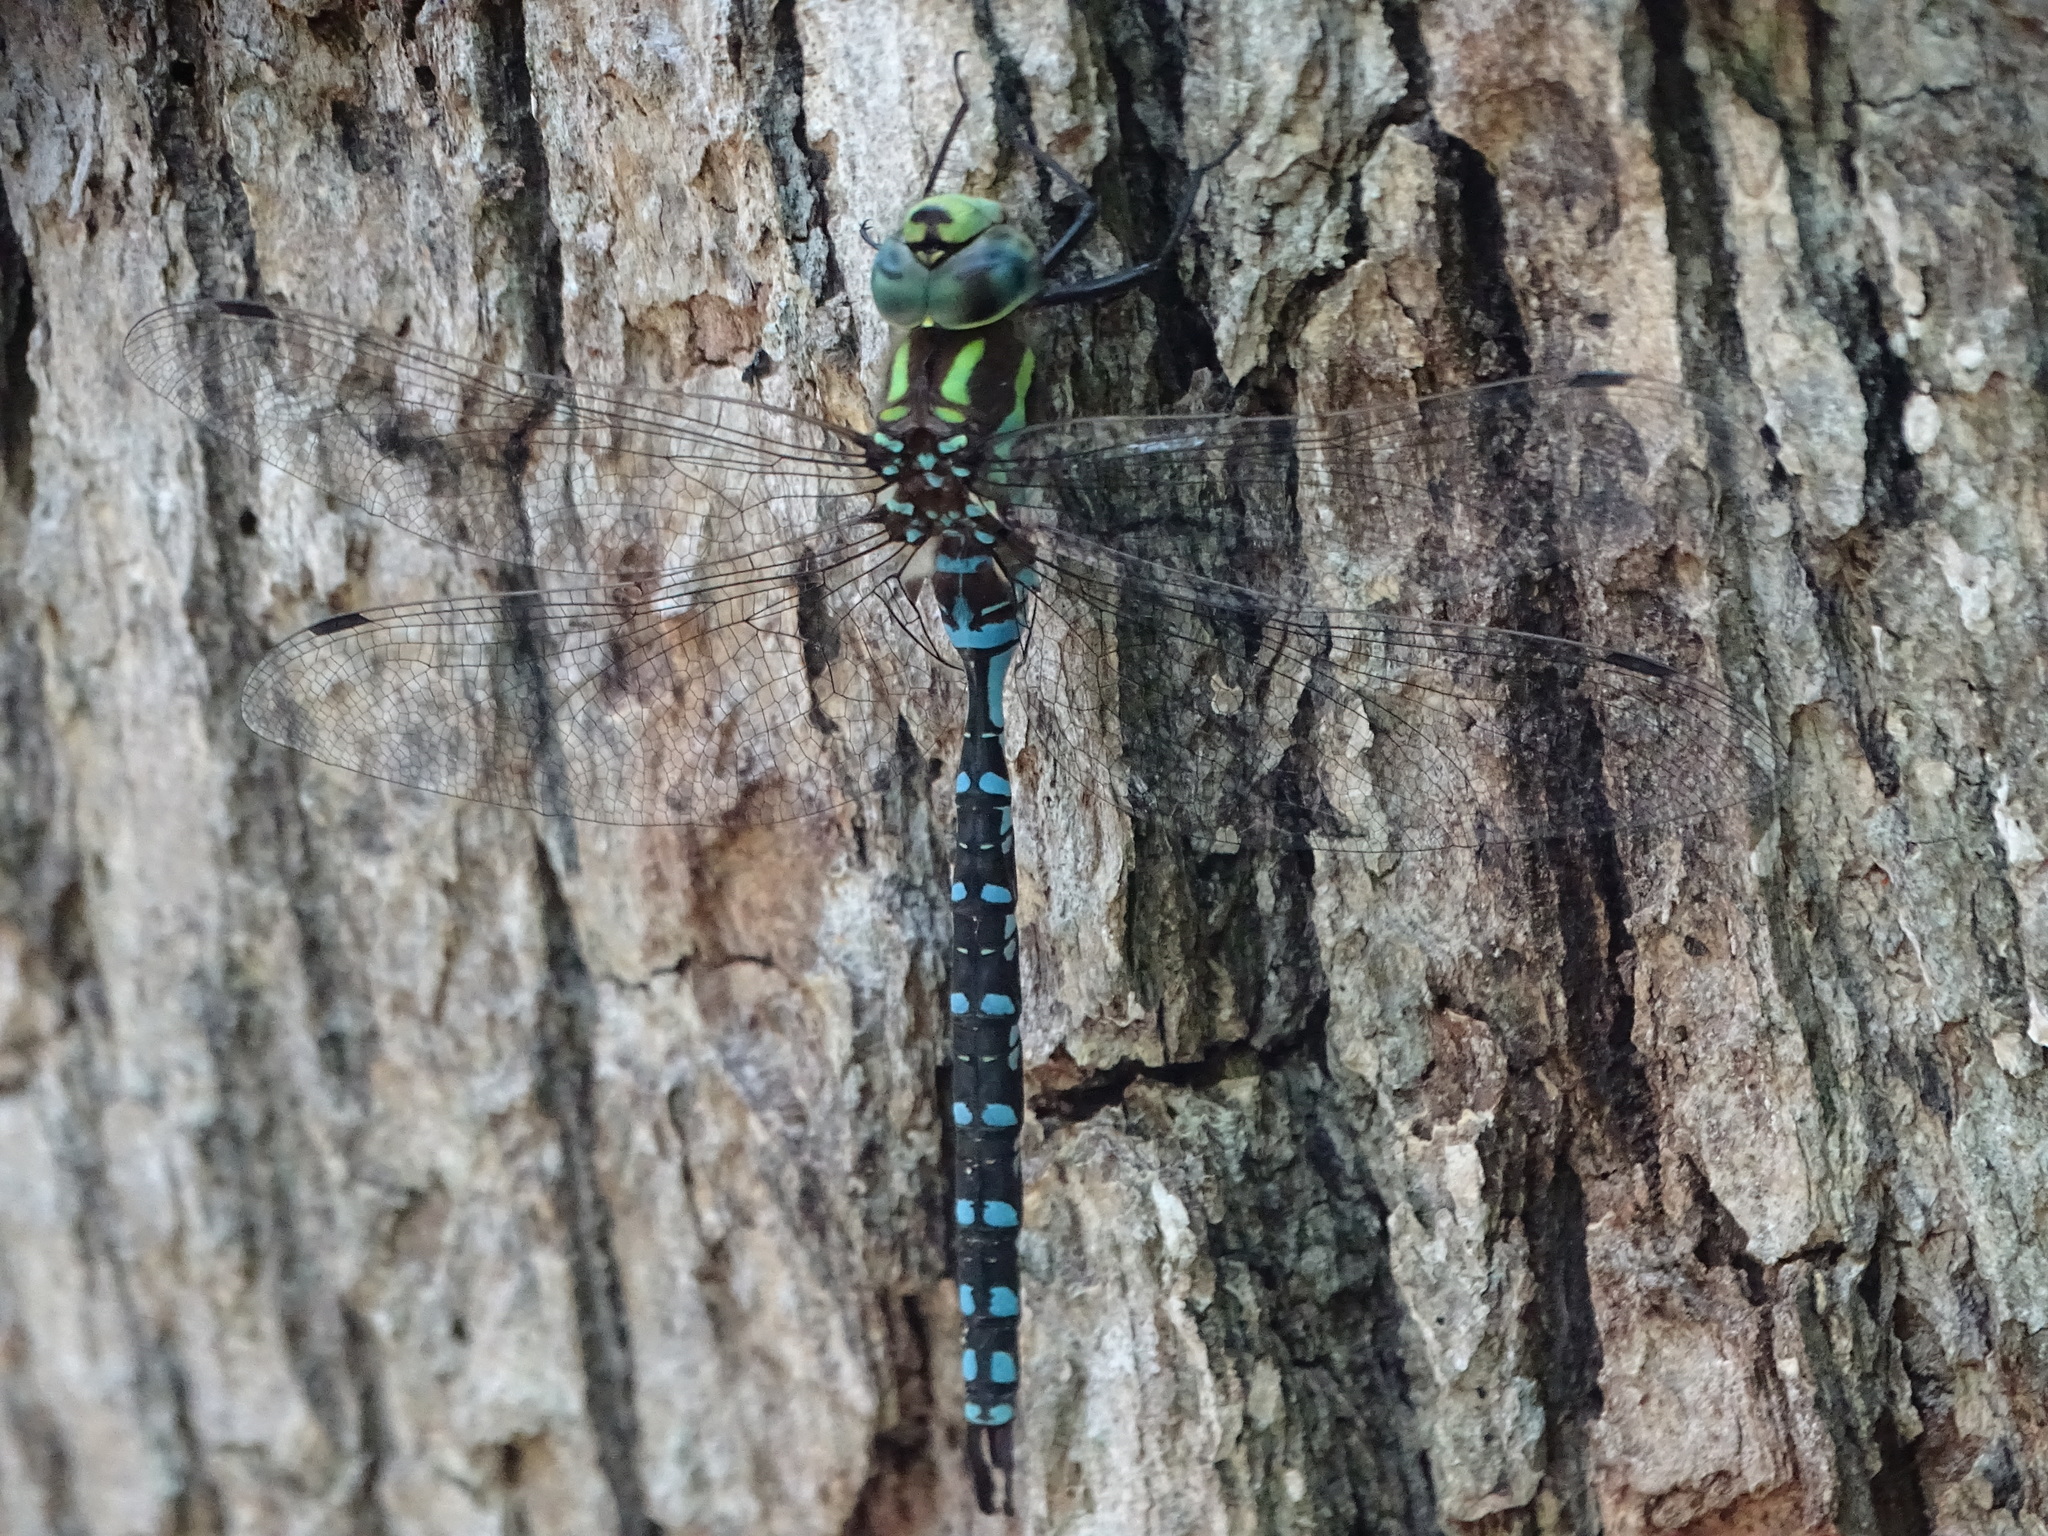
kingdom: Animalia
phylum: Arthropoda
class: Insecta
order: Odonata
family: Aeshnidae
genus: Aeshna
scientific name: Aeshna constricta
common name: Lance-tipped darner
